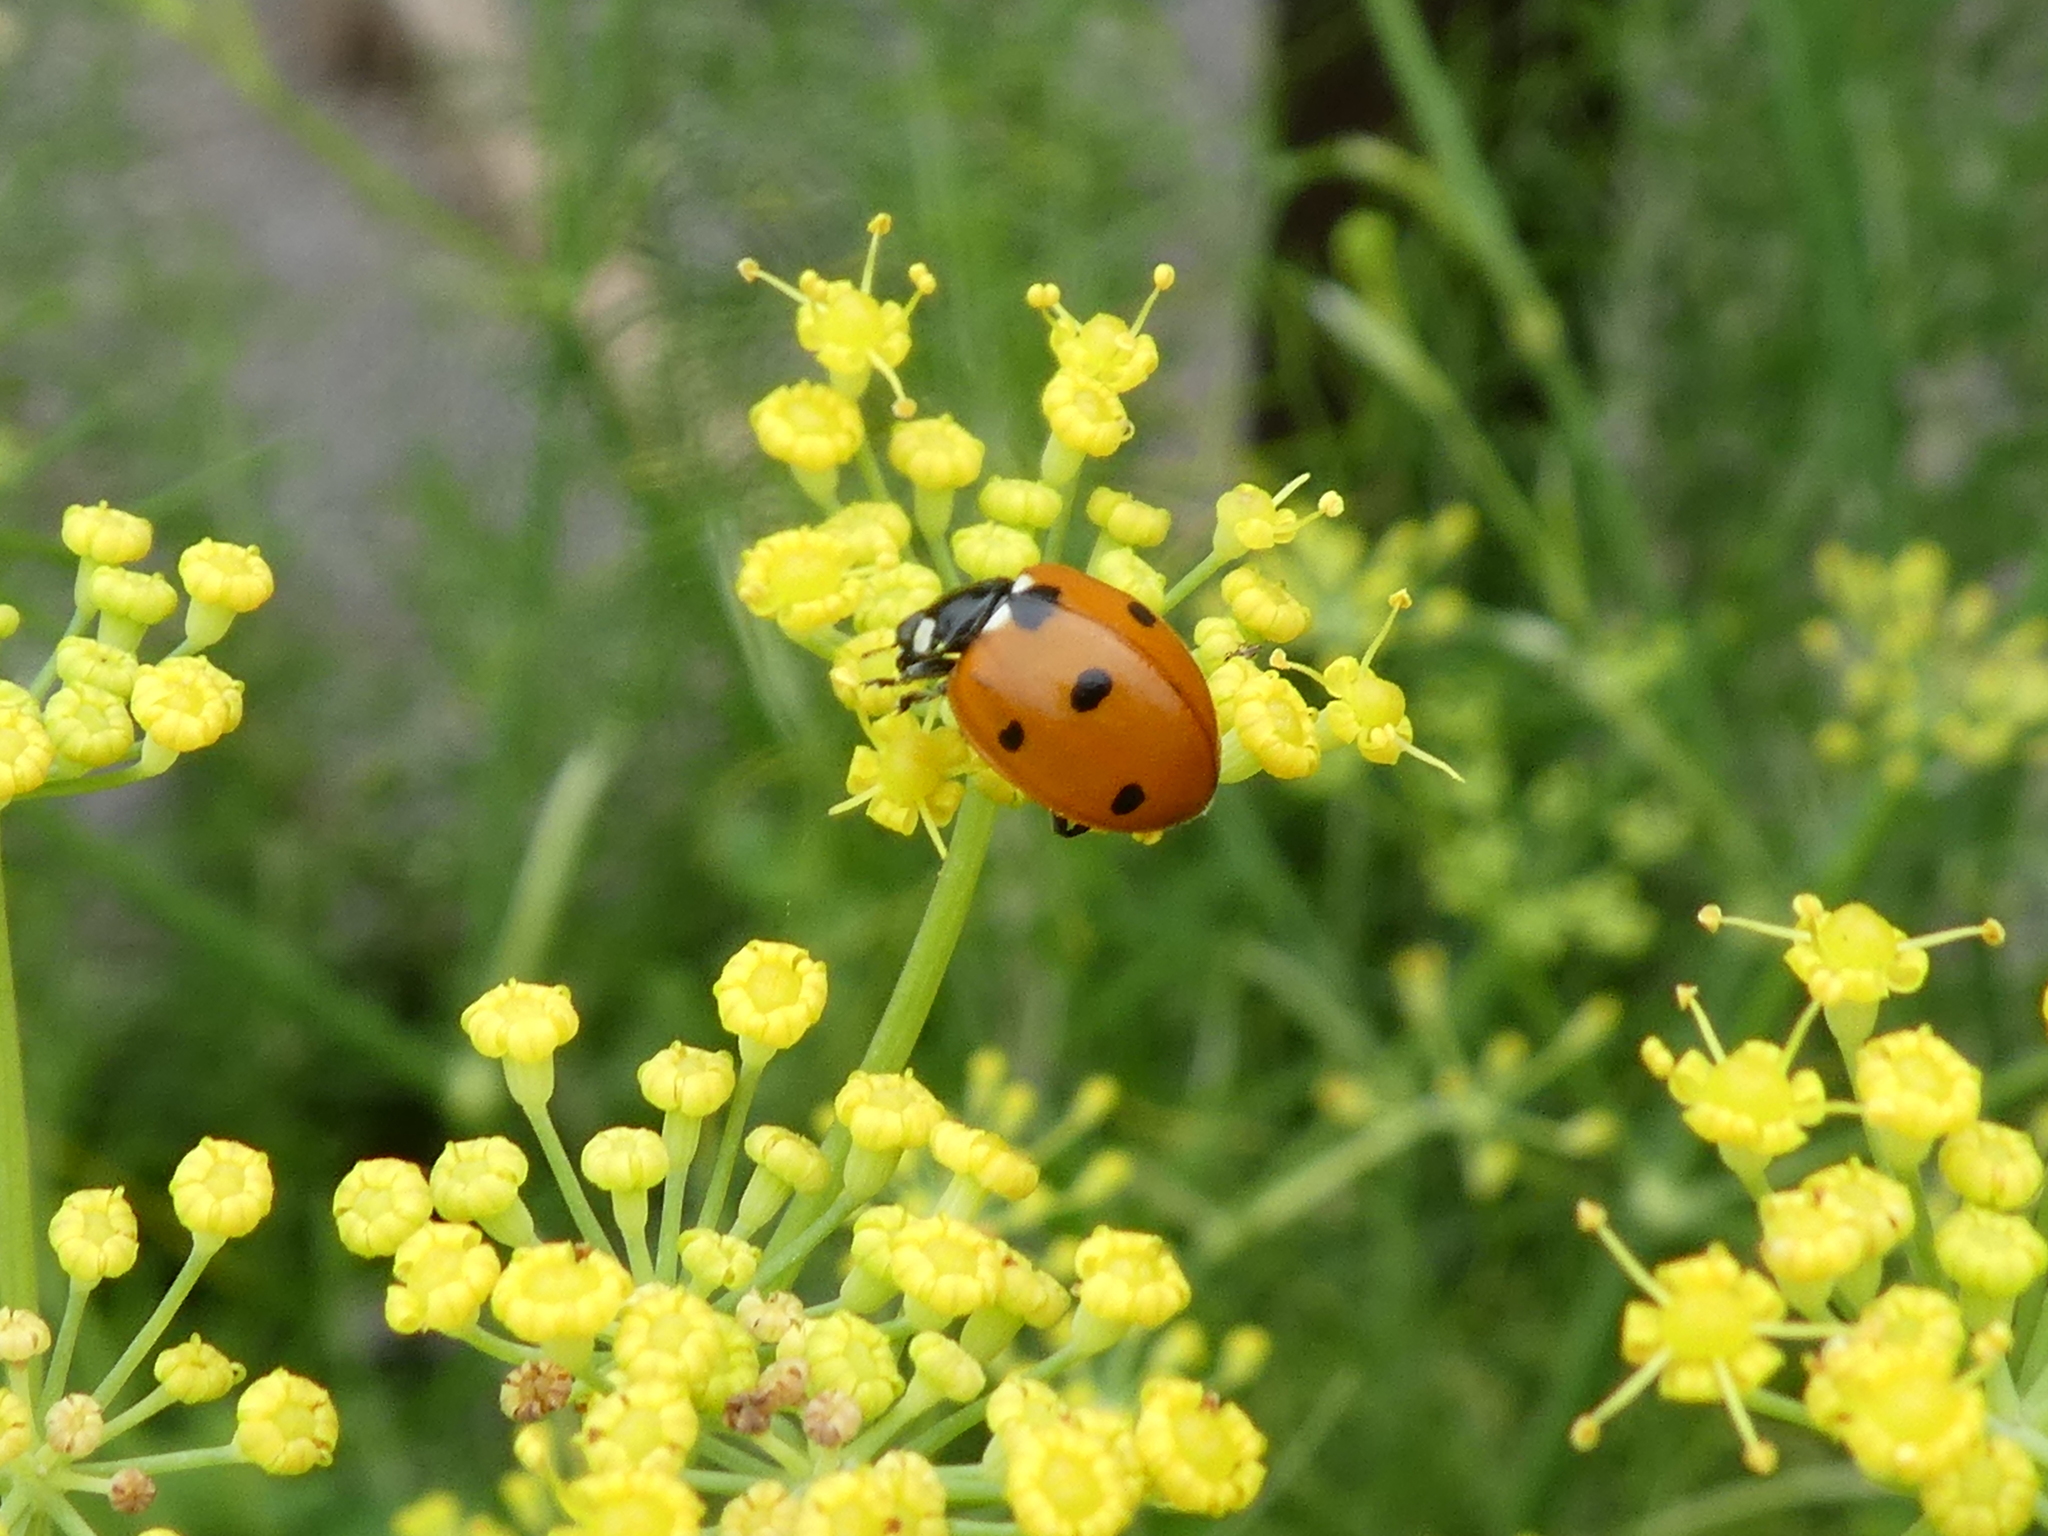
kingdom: Animalia
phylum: Arthropoda
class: Insecta
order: Coleoptera
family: Coccinellidae
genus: Coccinella
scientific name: Coccinella septempunctata
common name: Sevenspotted lady beetle
